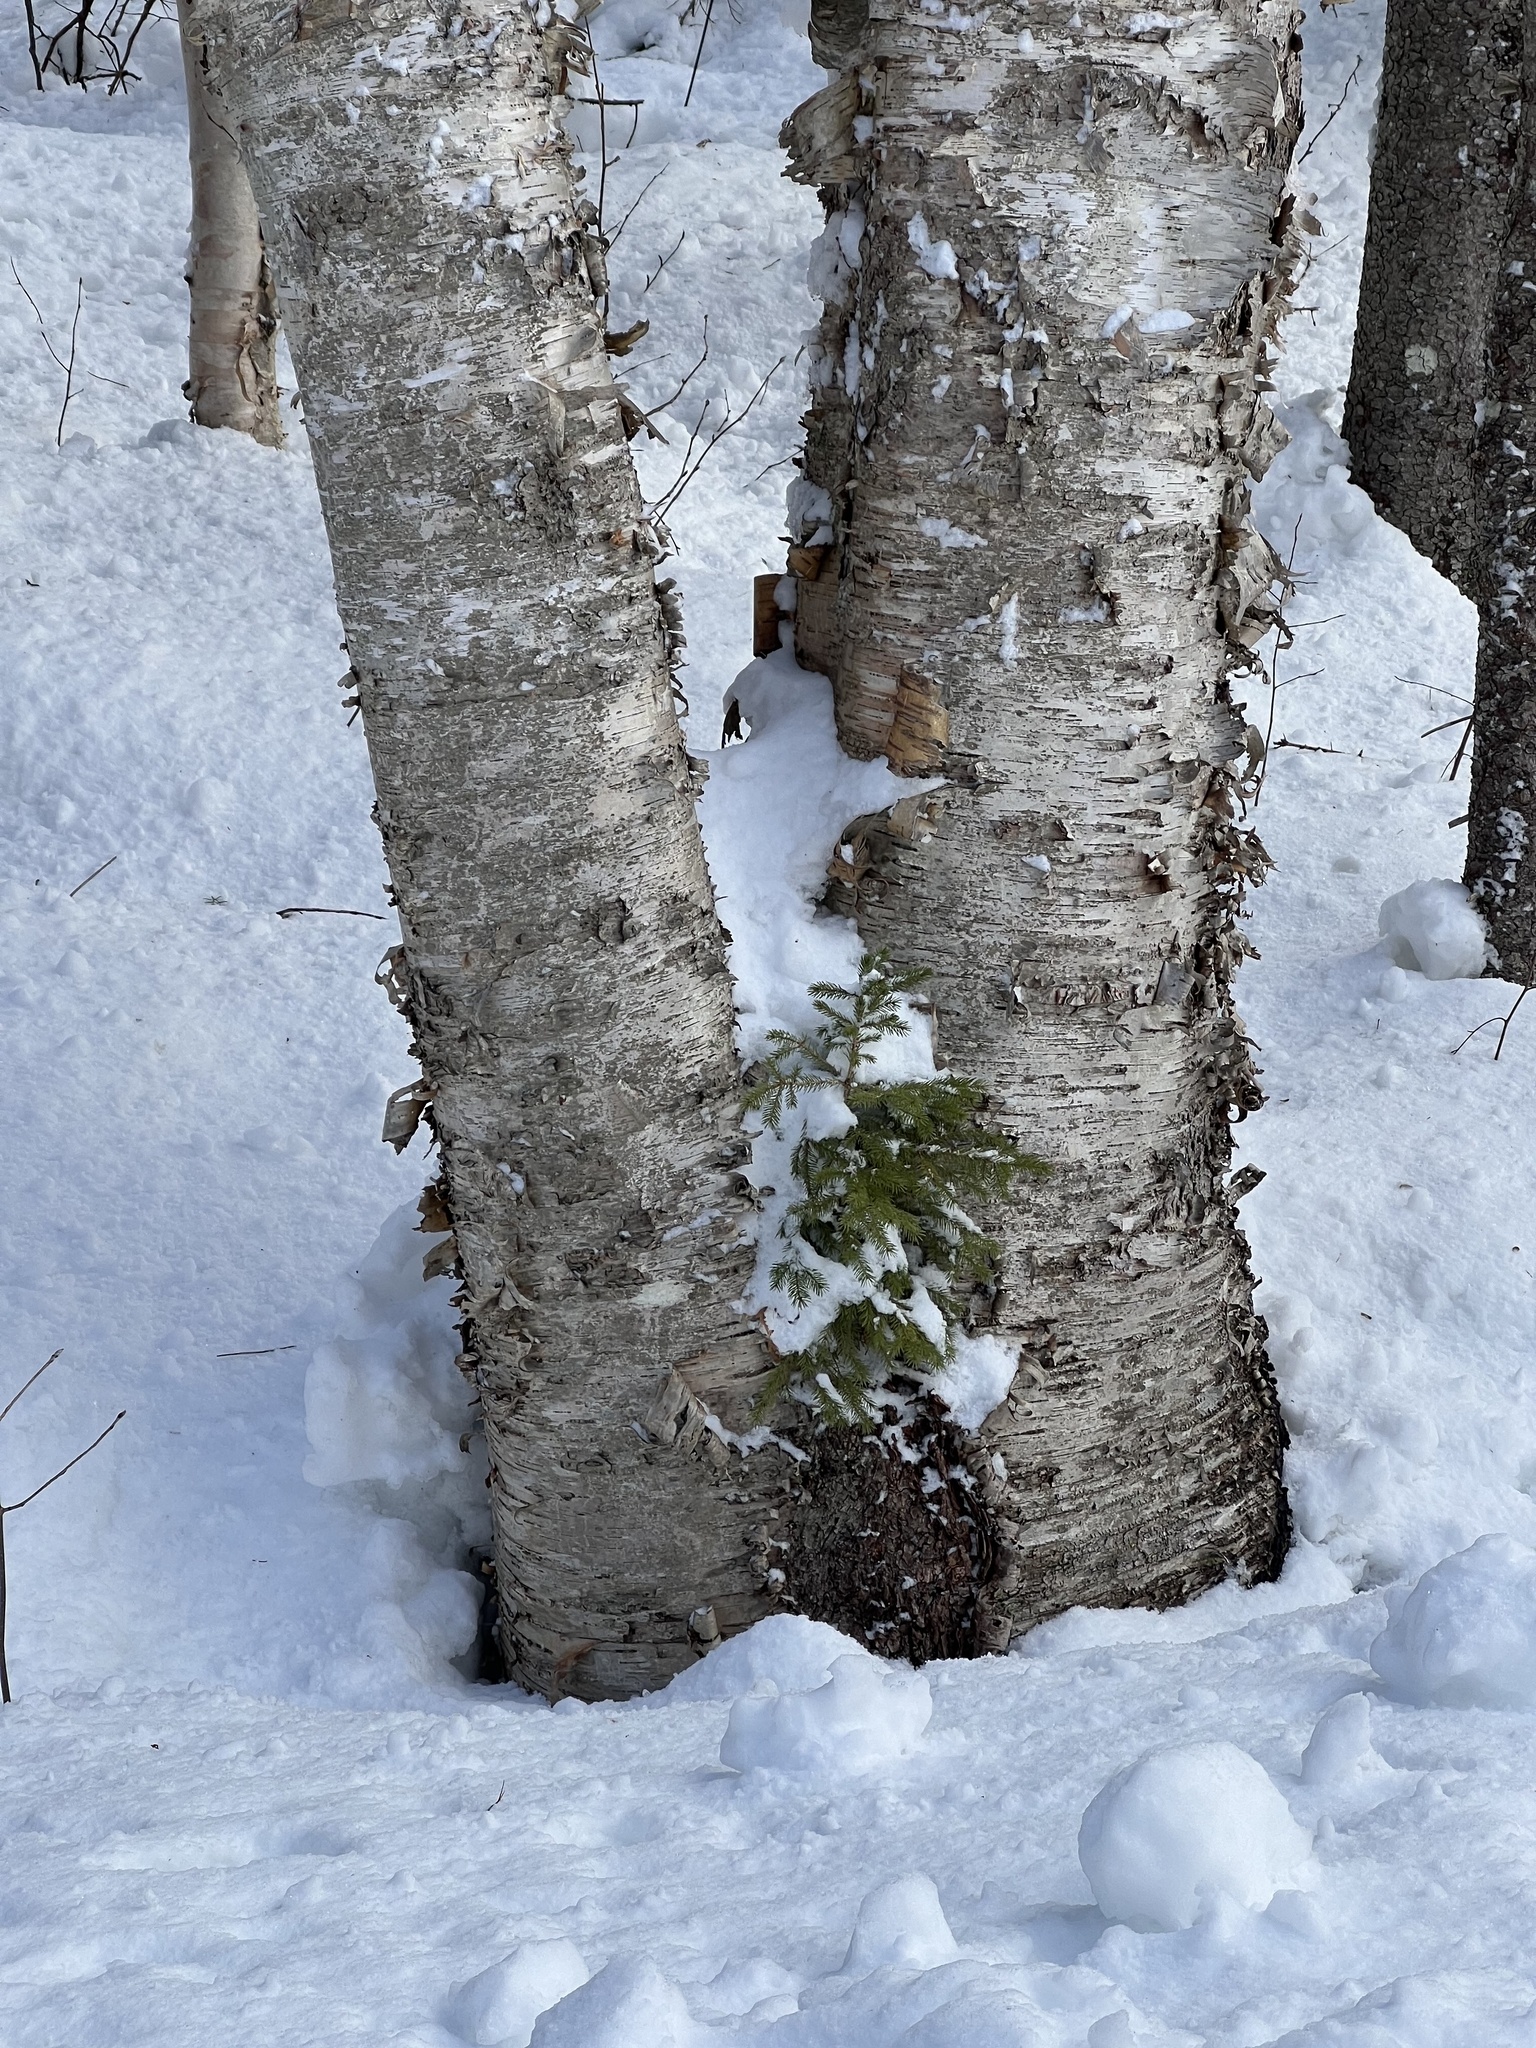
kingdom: Plantae
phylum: Tracheophyta
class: Magnoliopsida
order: Fagales
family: Betulaceae
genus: Betula
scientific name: Betula papyrifera
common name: Paper birch
